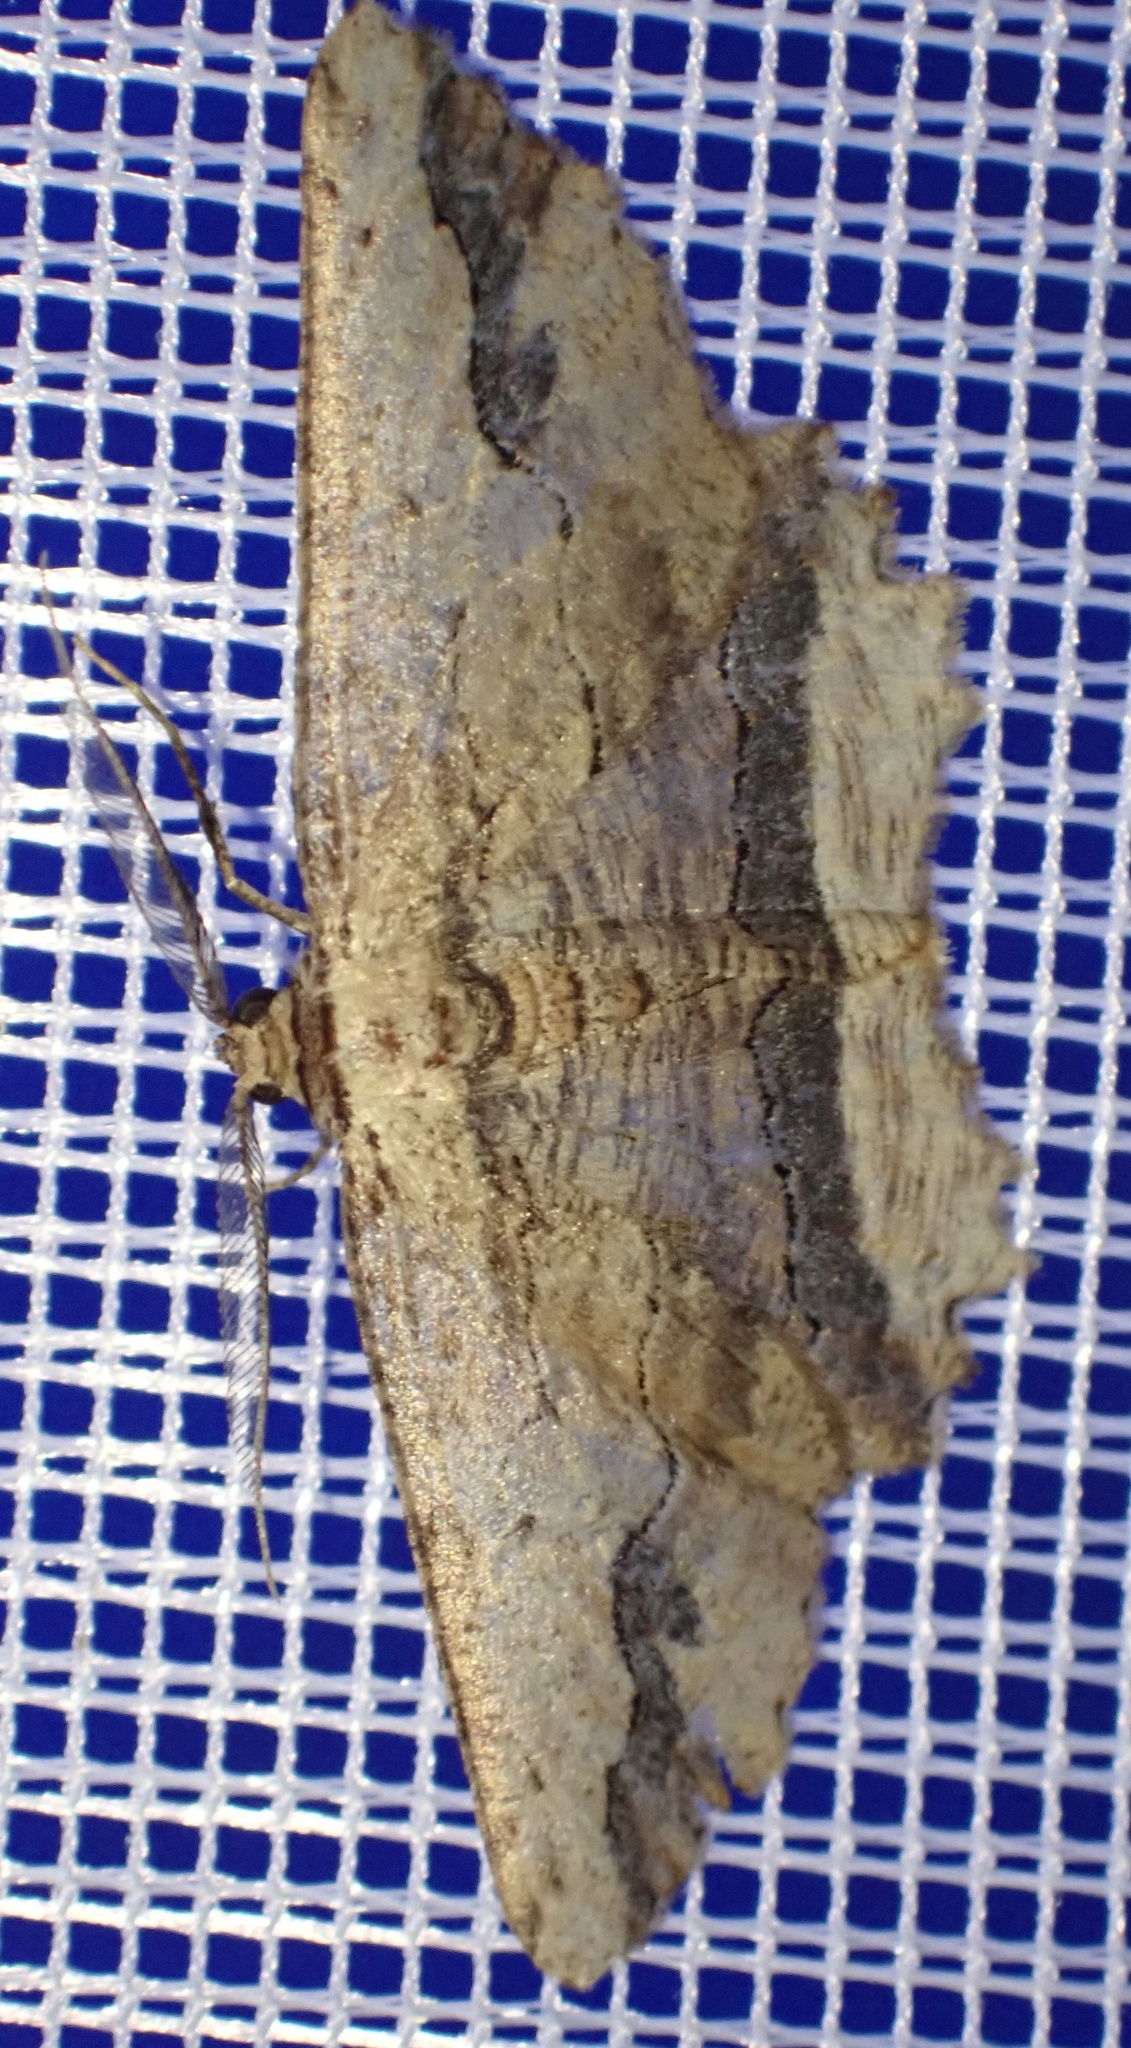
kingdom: Animalia
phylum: Arthropoda
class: Insecta
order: Lepidoptera
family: Geometridae
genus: Menophra
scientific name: Menophra abruptaria
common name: Waved umber
